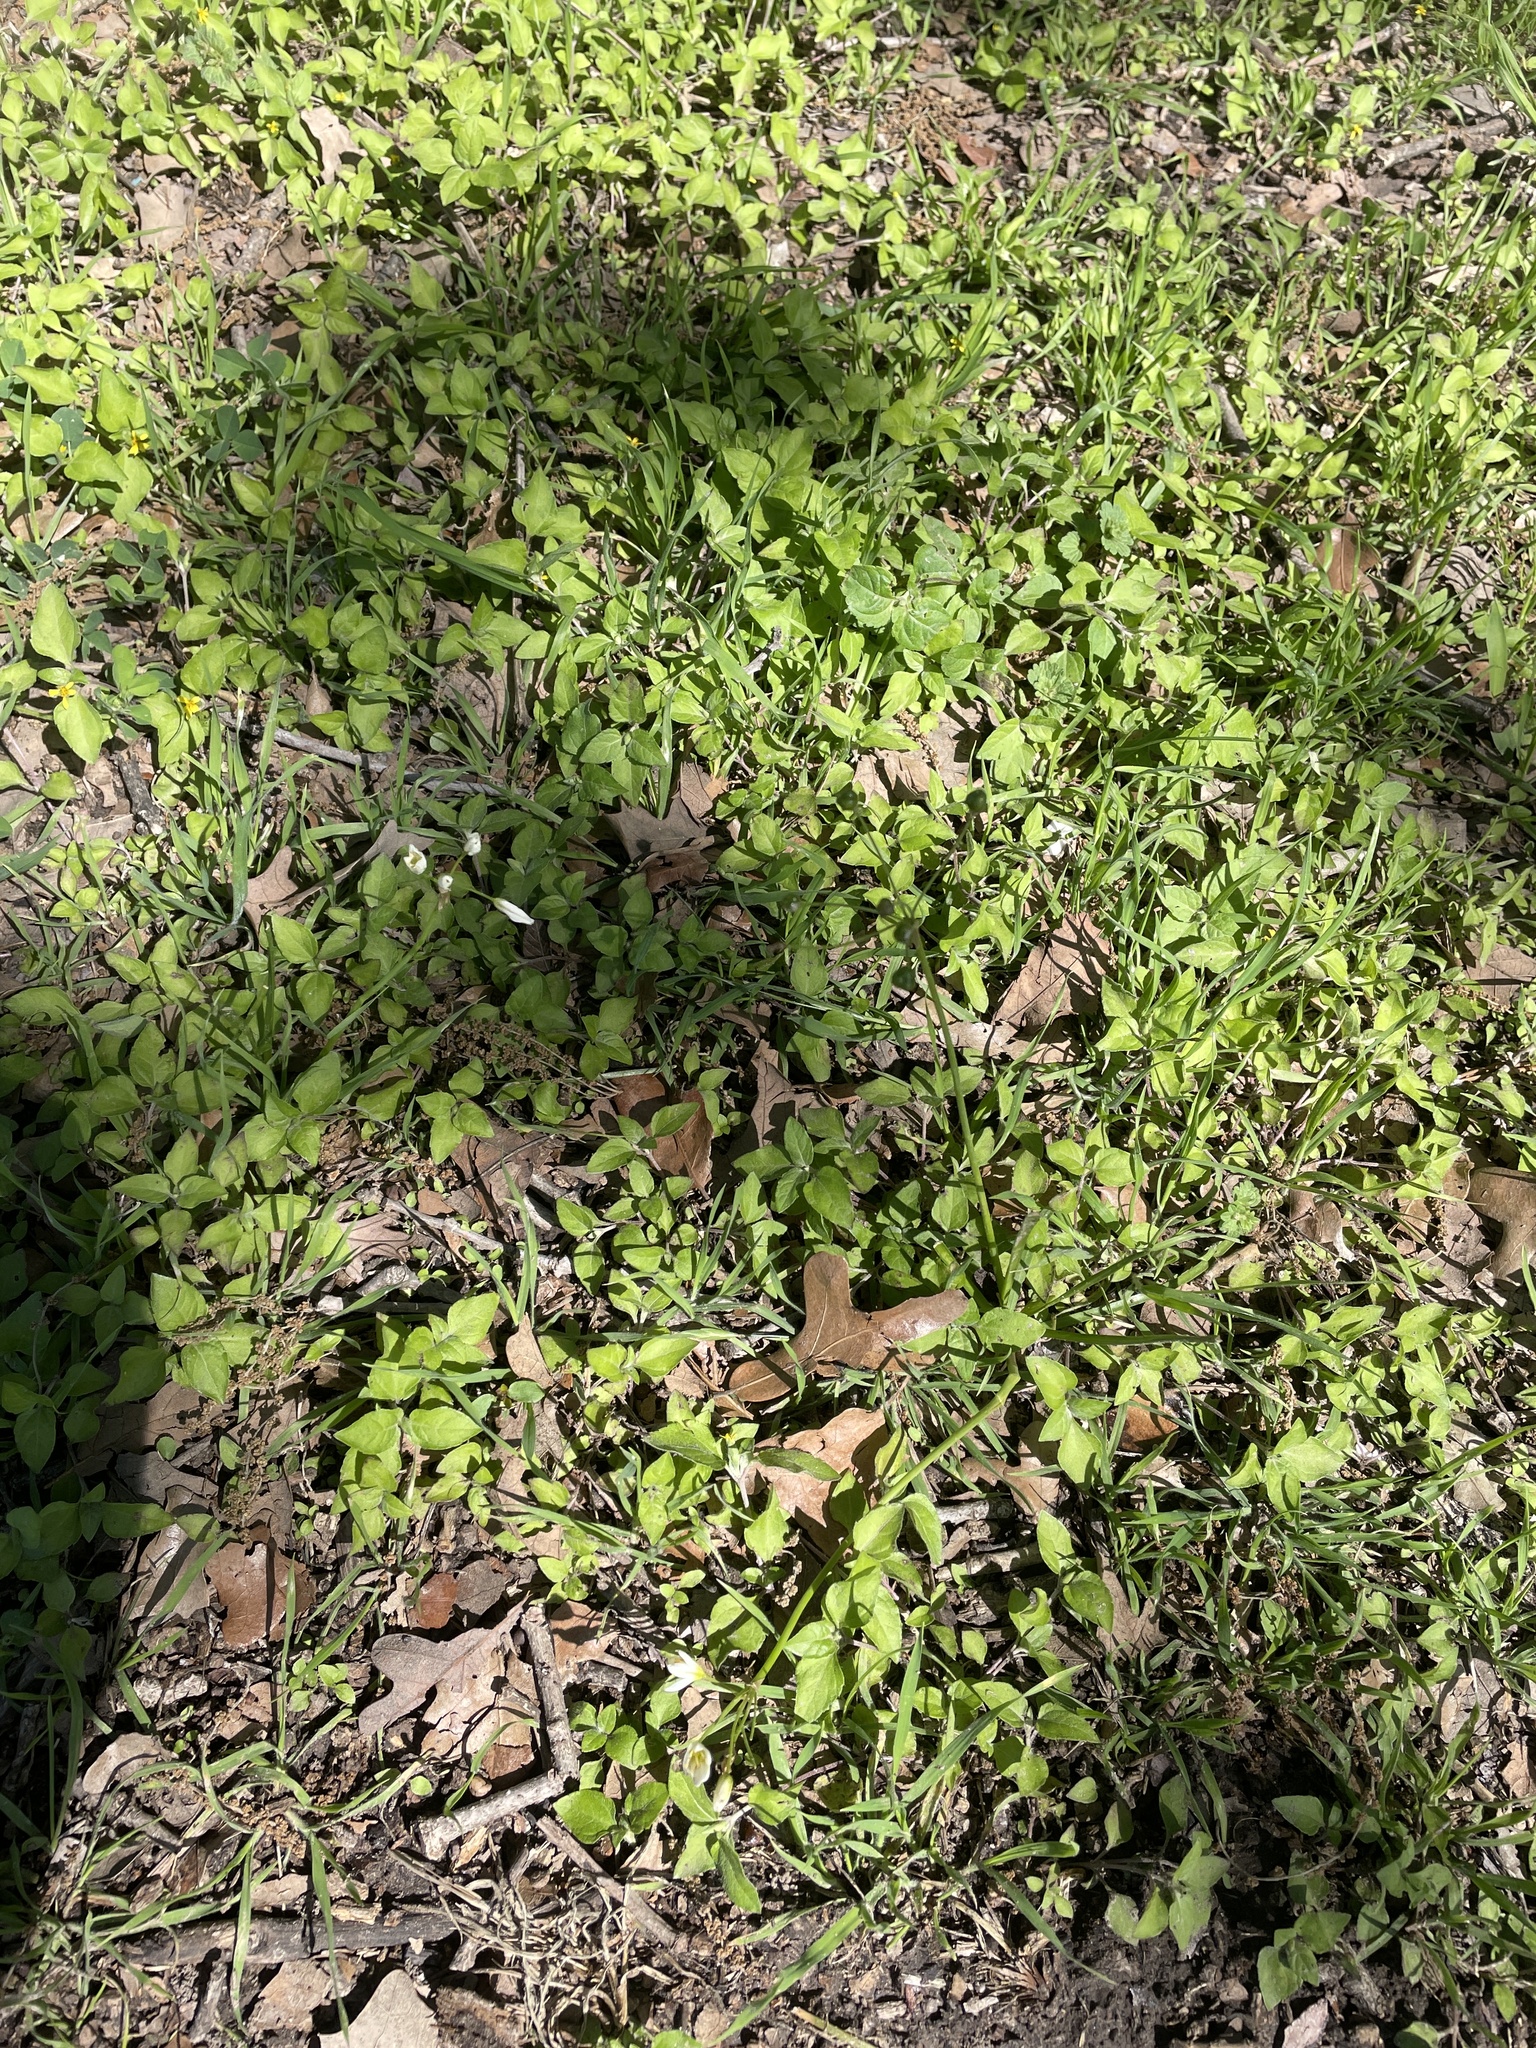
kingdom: Plantae
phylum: Tracheophyta
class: Liliopsida
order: Asparagales
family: Amaryllidaceae
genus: Nothoscordum
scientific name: Nothoscordum bivalve
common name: Crow-poison
